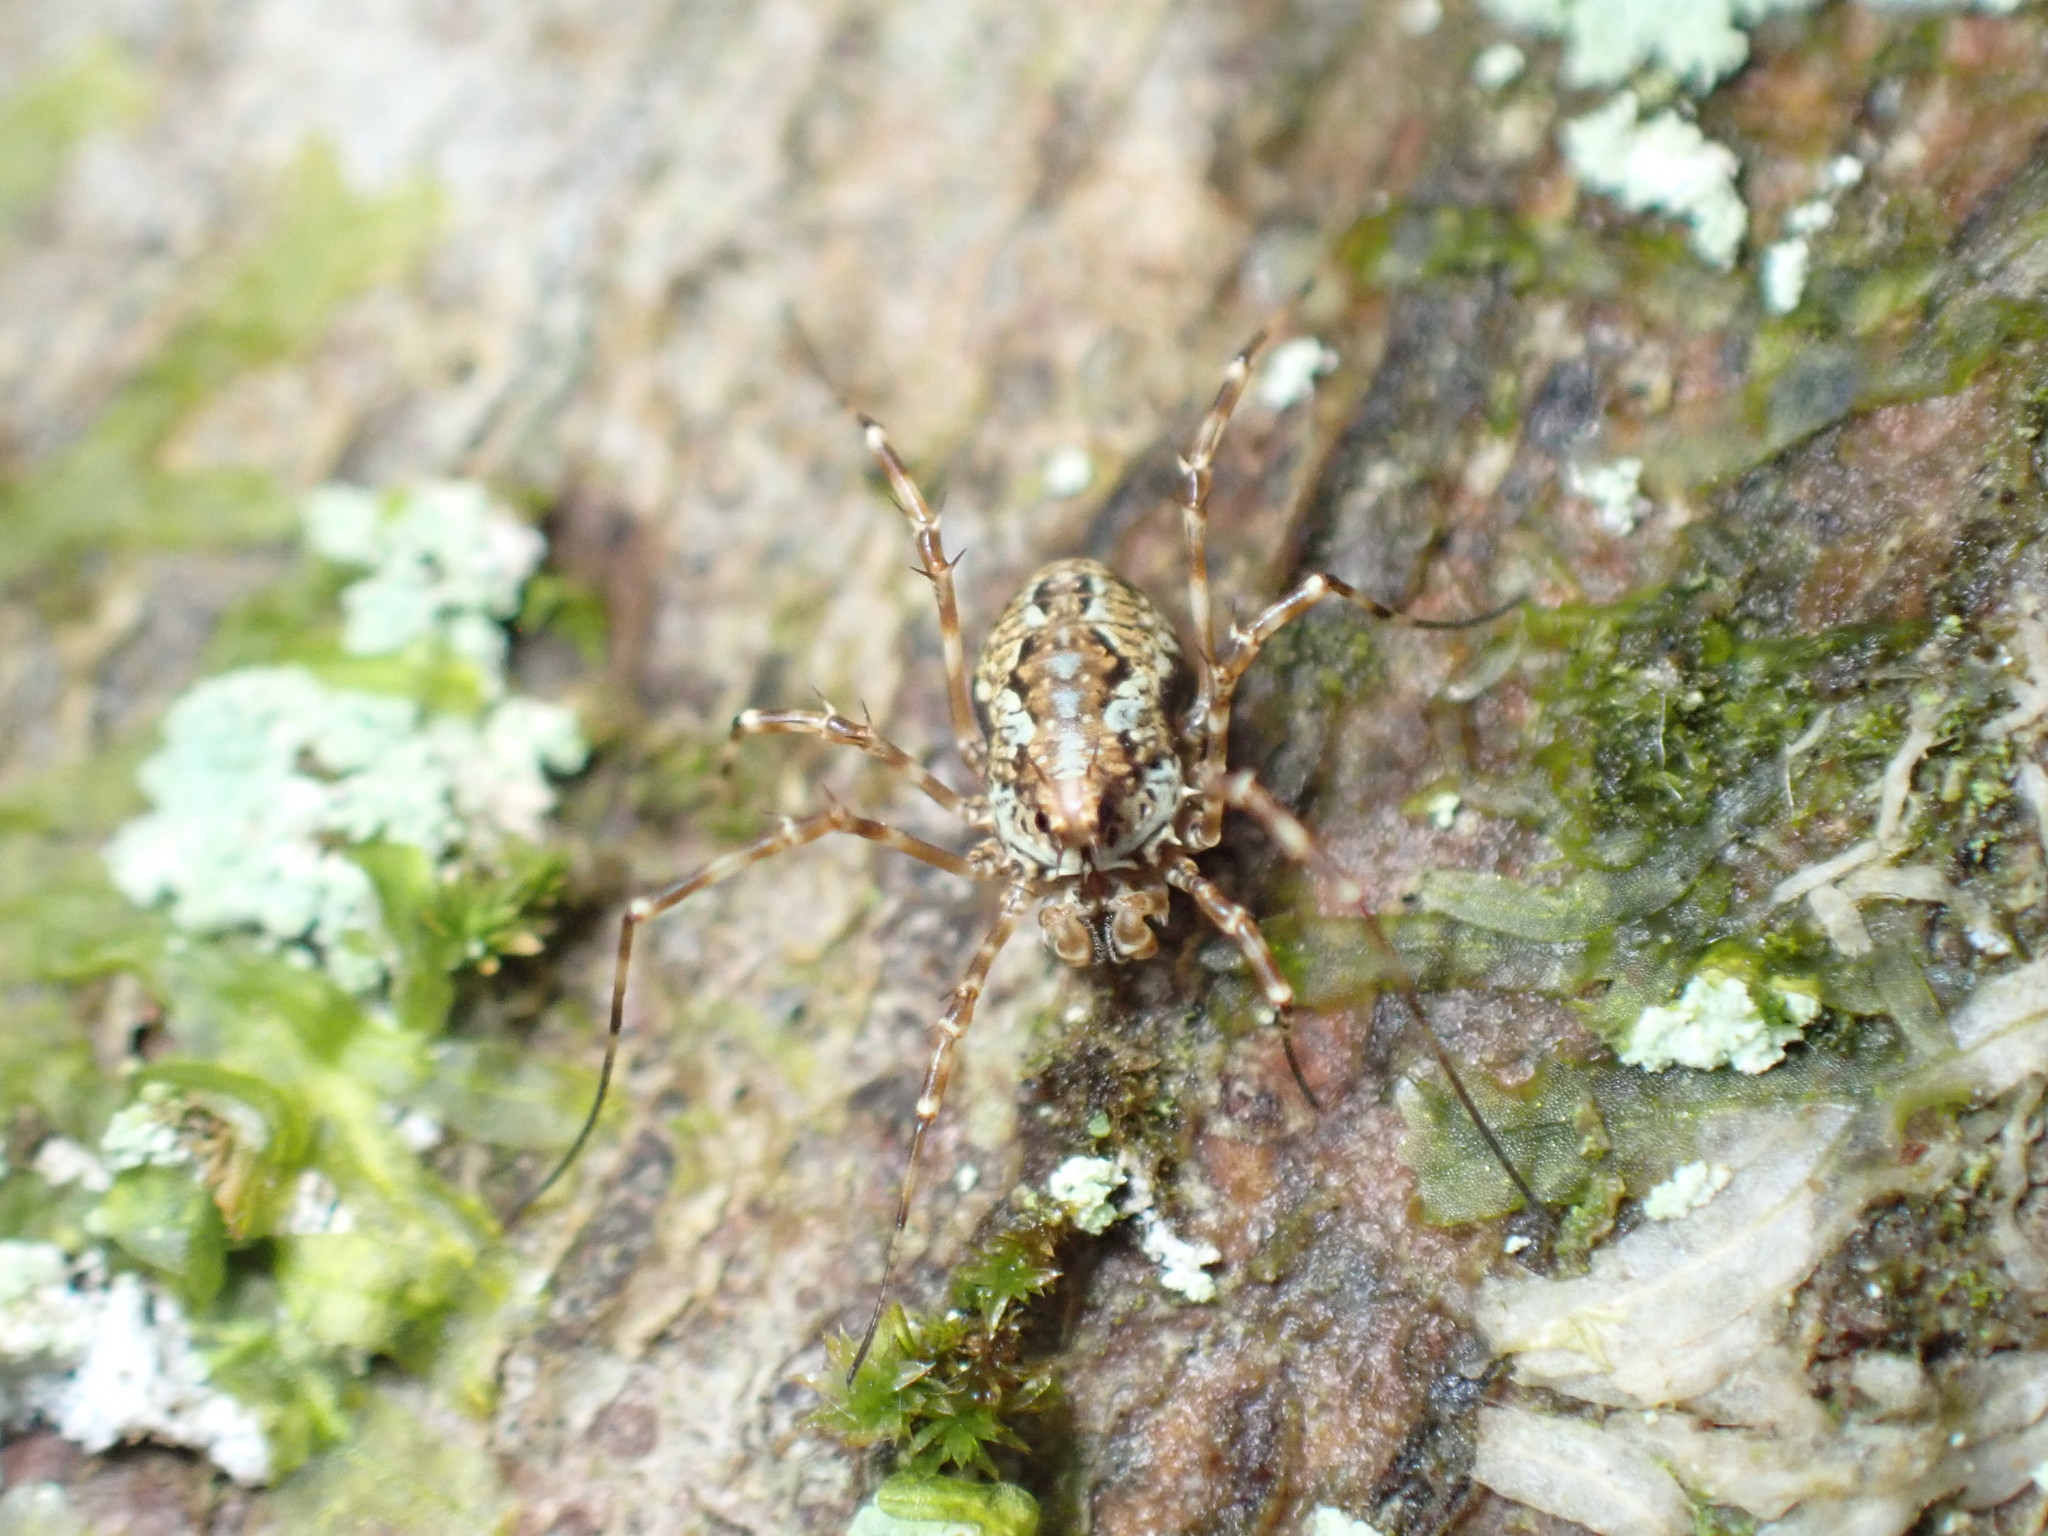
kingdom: Animalia
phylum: Arthropoda
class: Arachnida
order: Opiliones
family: Phalangiidae
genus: Megabunus
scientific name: Megabunus diadema
